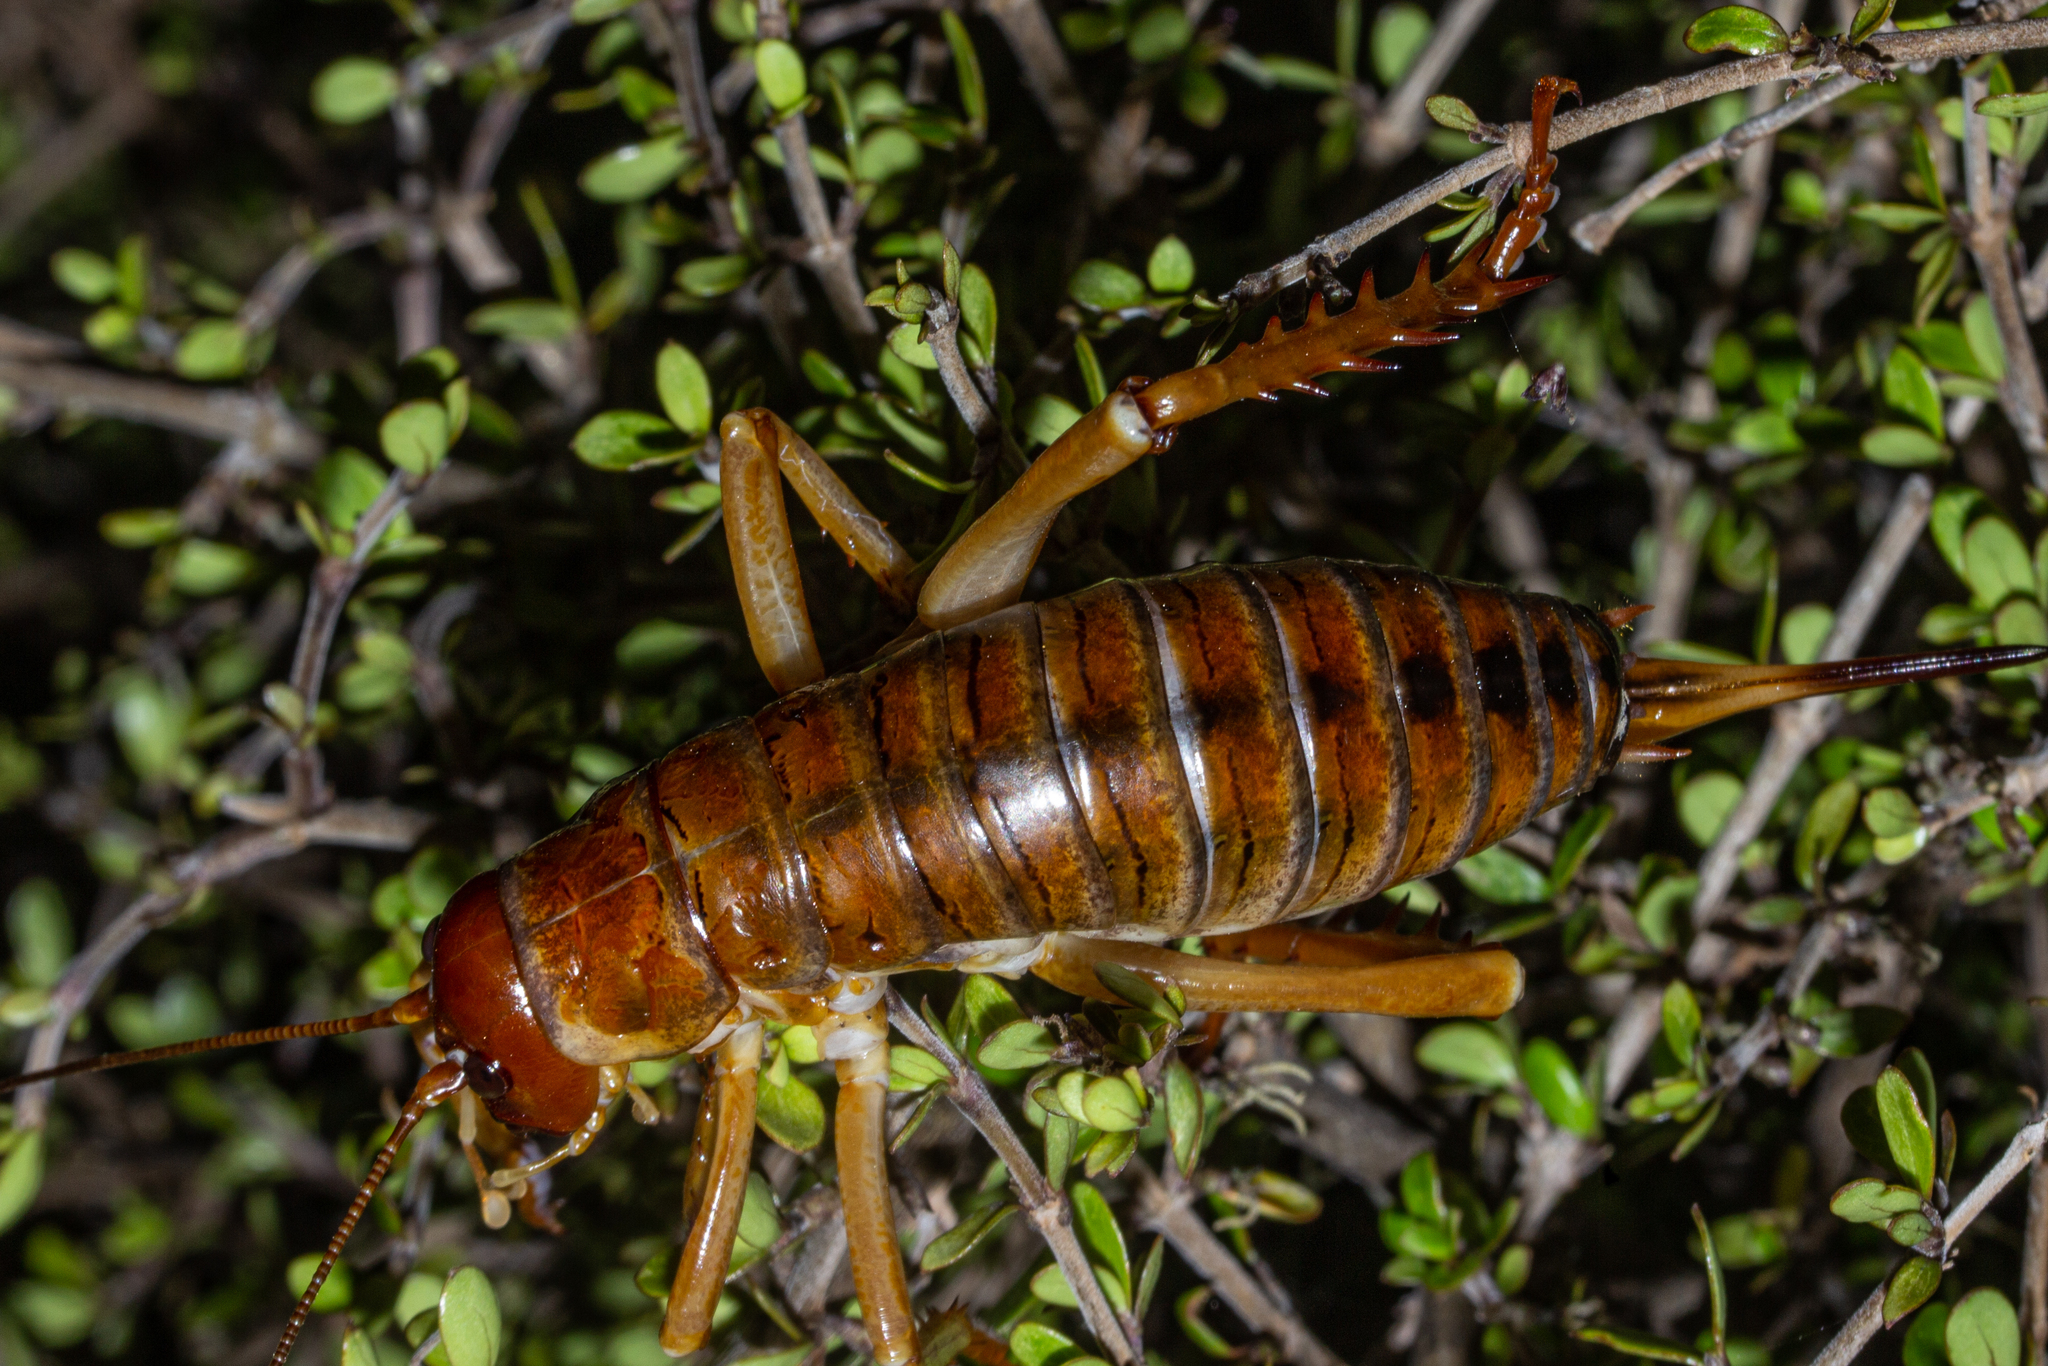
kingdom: Animalia
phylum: Arthropoda
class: Insecta
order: Orthoptera
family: Anostostomatidae
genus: Hemideina
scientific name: Hemideina ricta
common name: Banks peninsula tree weta
